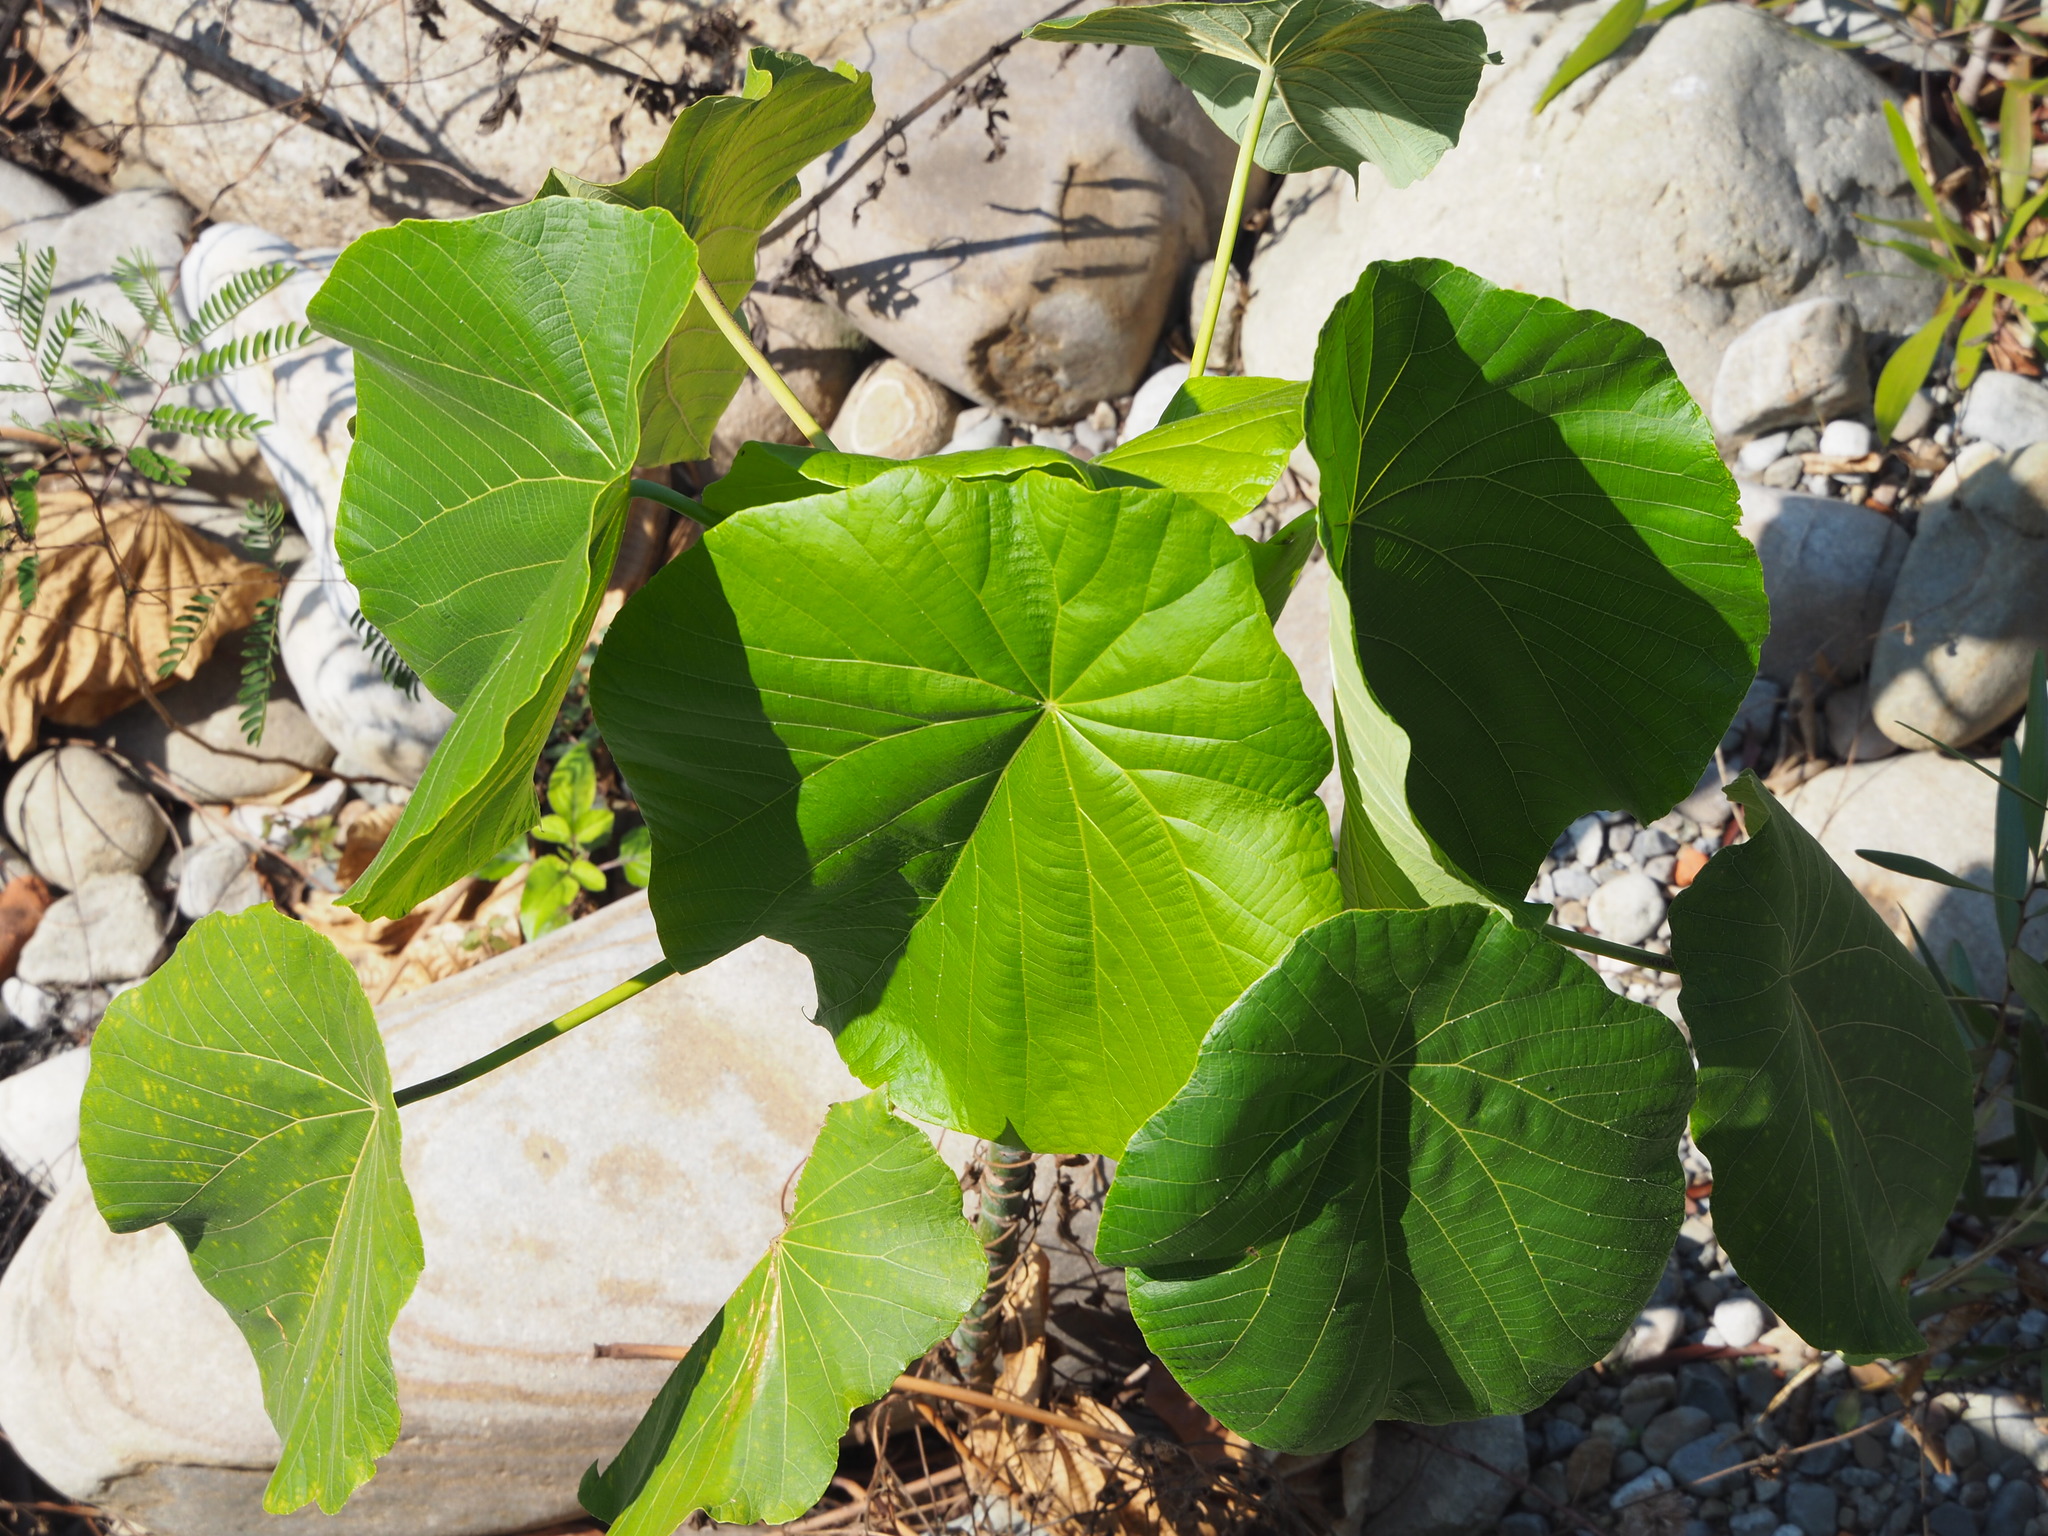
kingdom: Plantae
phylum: Tracheophyta
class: Magnoliopsida
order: Malpighiales
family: Euphorbiaceae
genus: Macaranga
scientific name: Macaranga tanarius
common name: Parasol leaf tree
